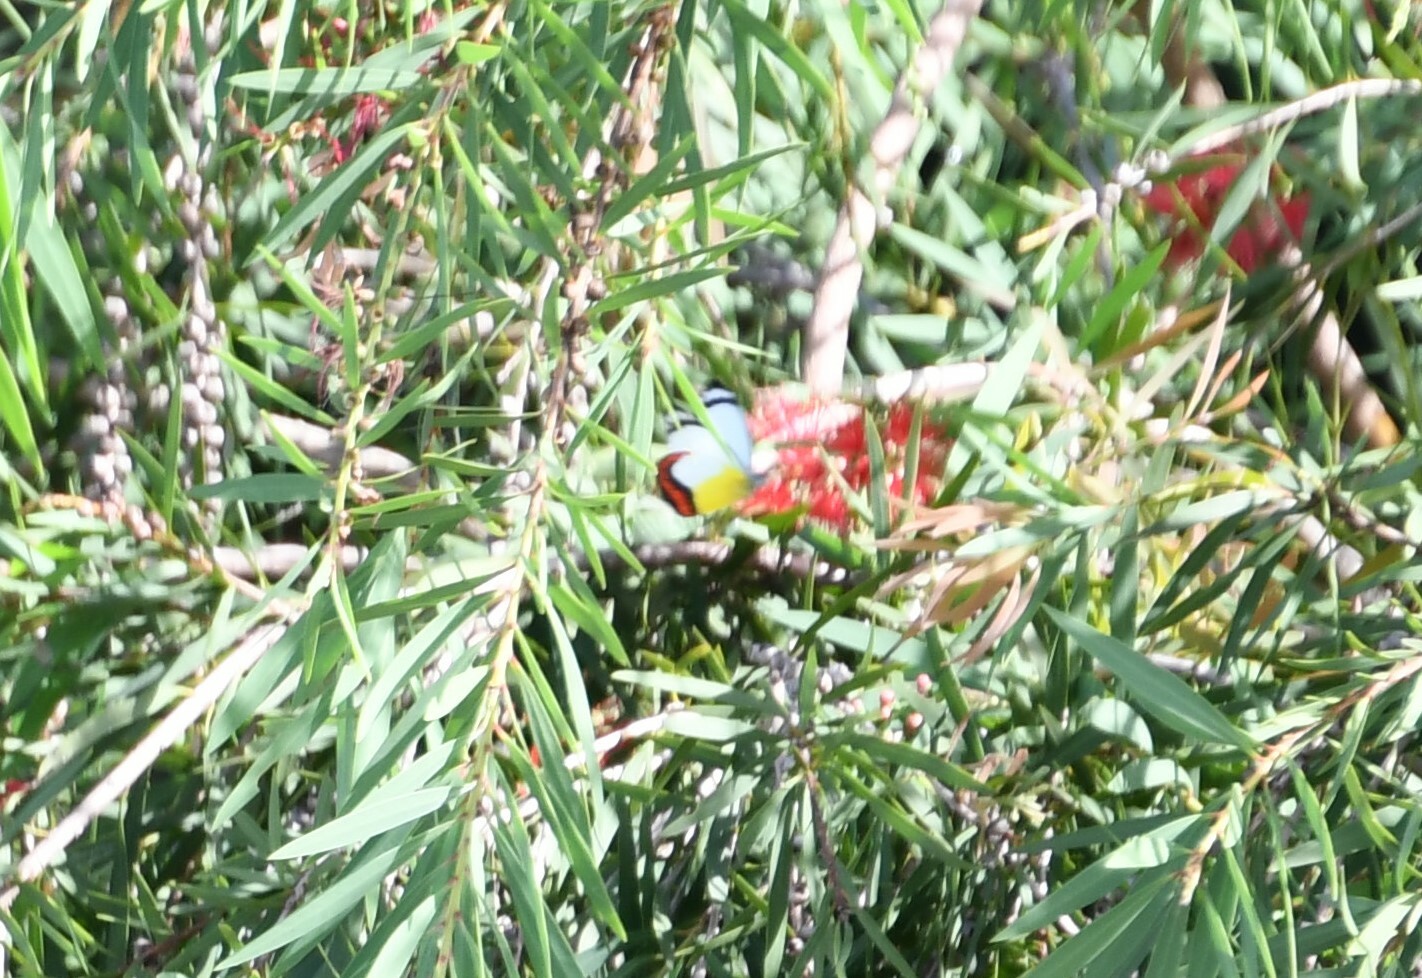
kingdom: Animalia
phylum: Arthropoda
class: Insecta
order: Lepidoptera
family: Pieridae
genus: Delias
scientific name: Delias mysis
